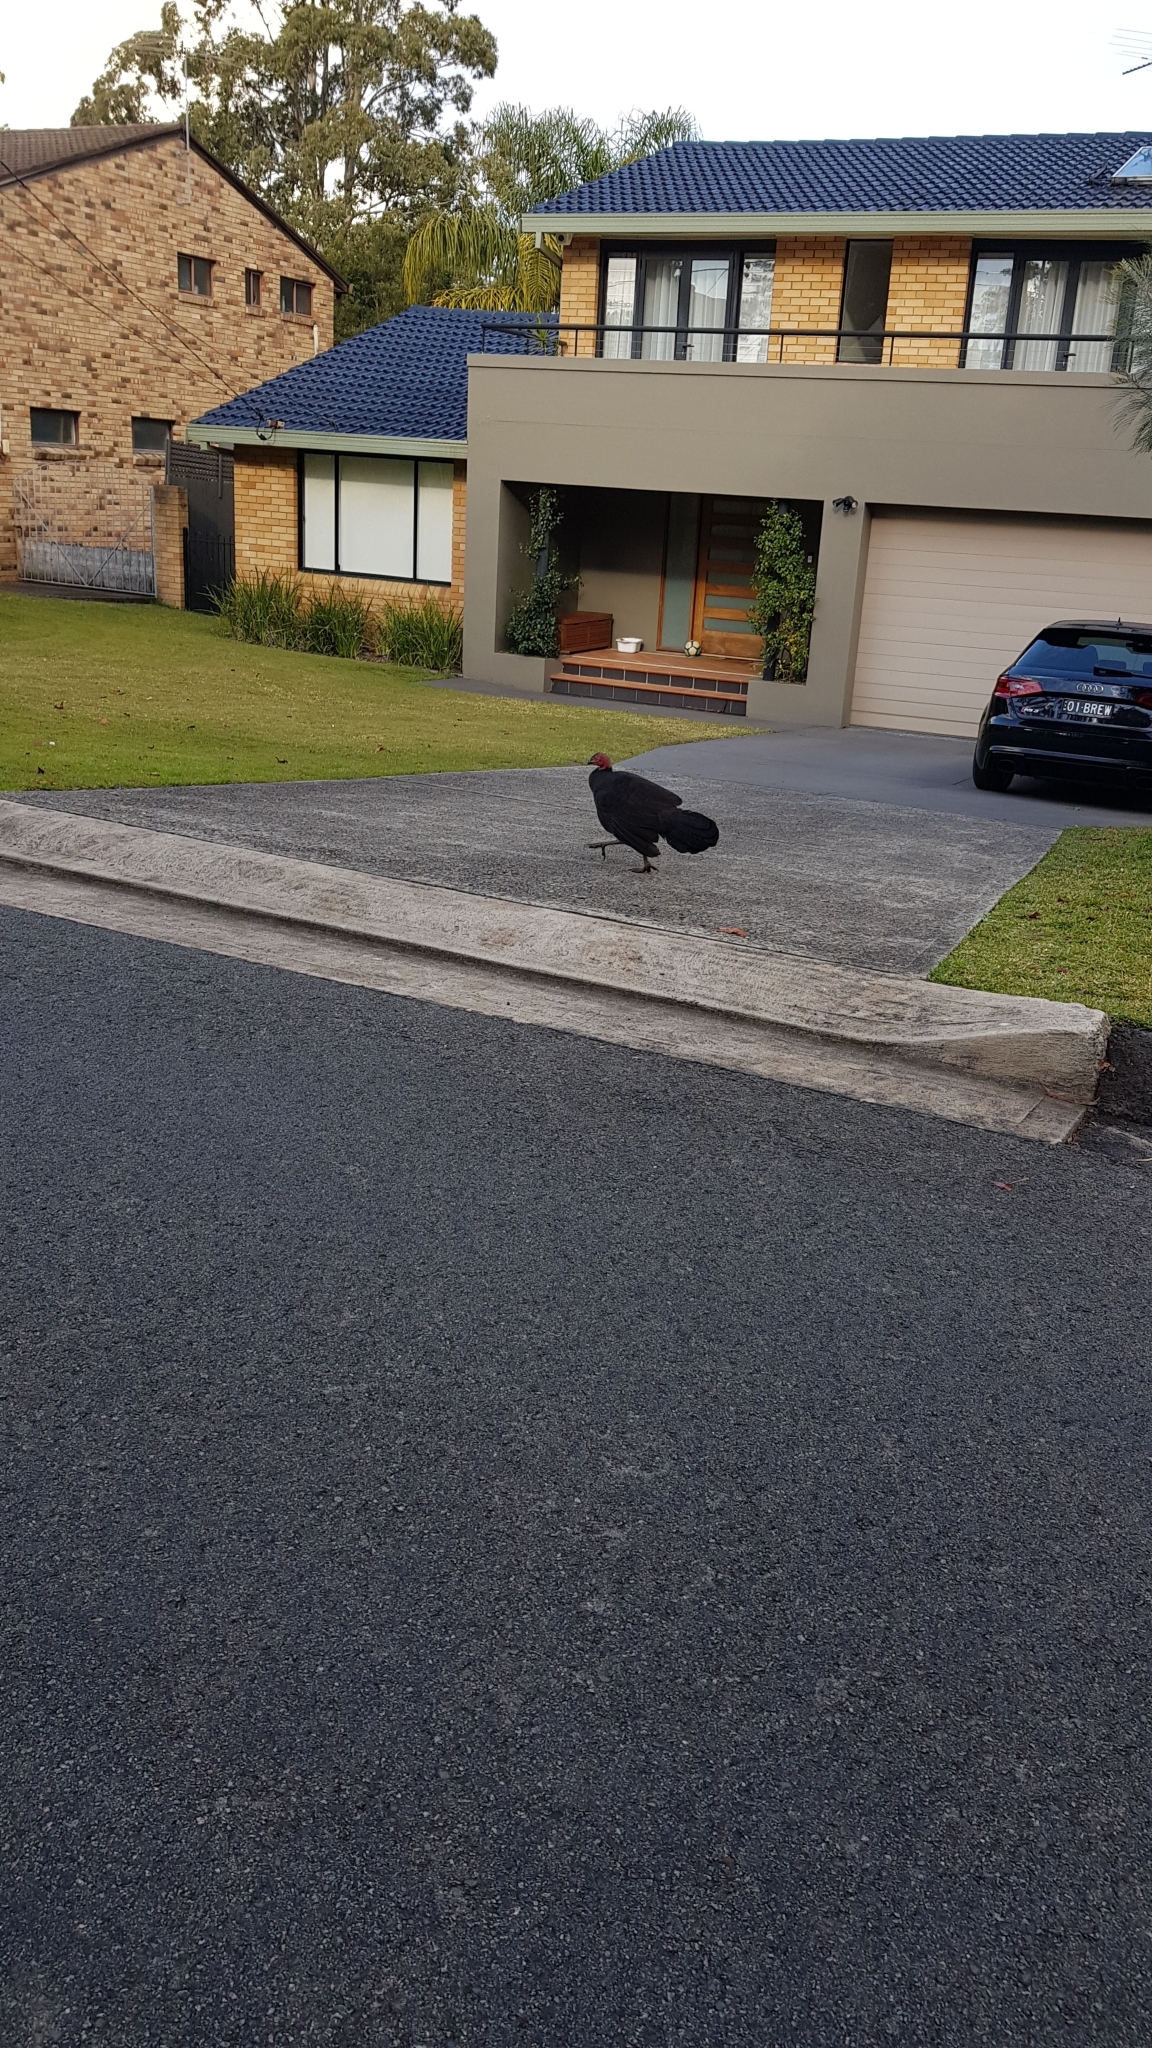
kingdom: Animalia
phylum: Chordata
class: Aves
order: Galliformes
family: Megapodiidae
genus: Alectura
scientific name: Alectura lathami
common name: Australian brushturkey
